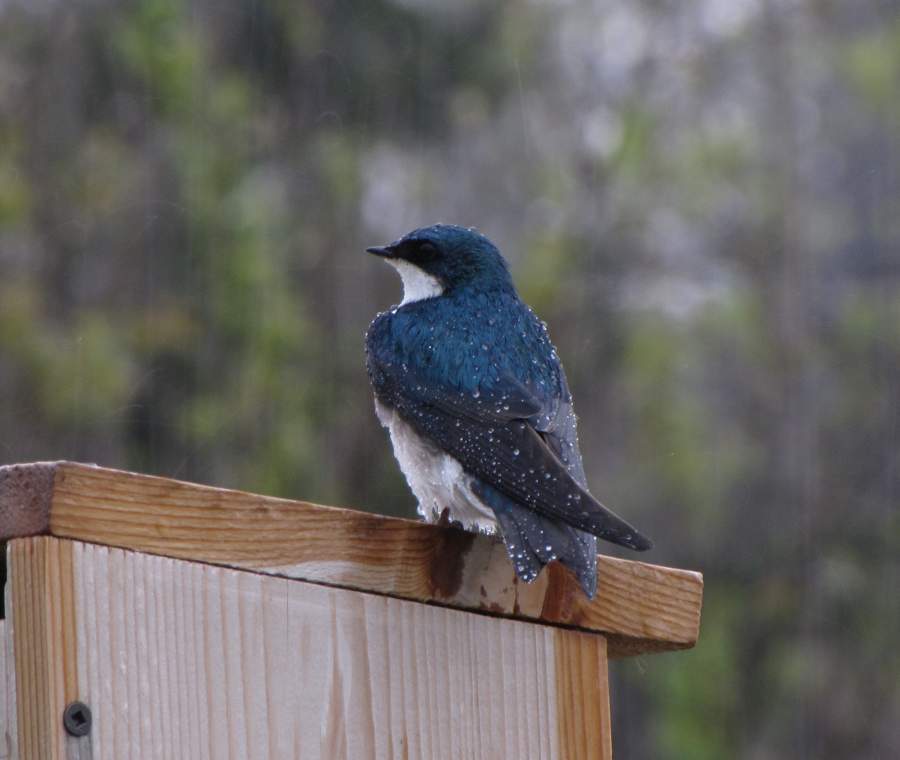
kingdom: Animalia
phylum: Chordata
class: Aves
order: Passeriformes
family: Hirundinidae
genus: Tachycineta
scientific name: Tachycineta bicolor
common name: Tree swallow
